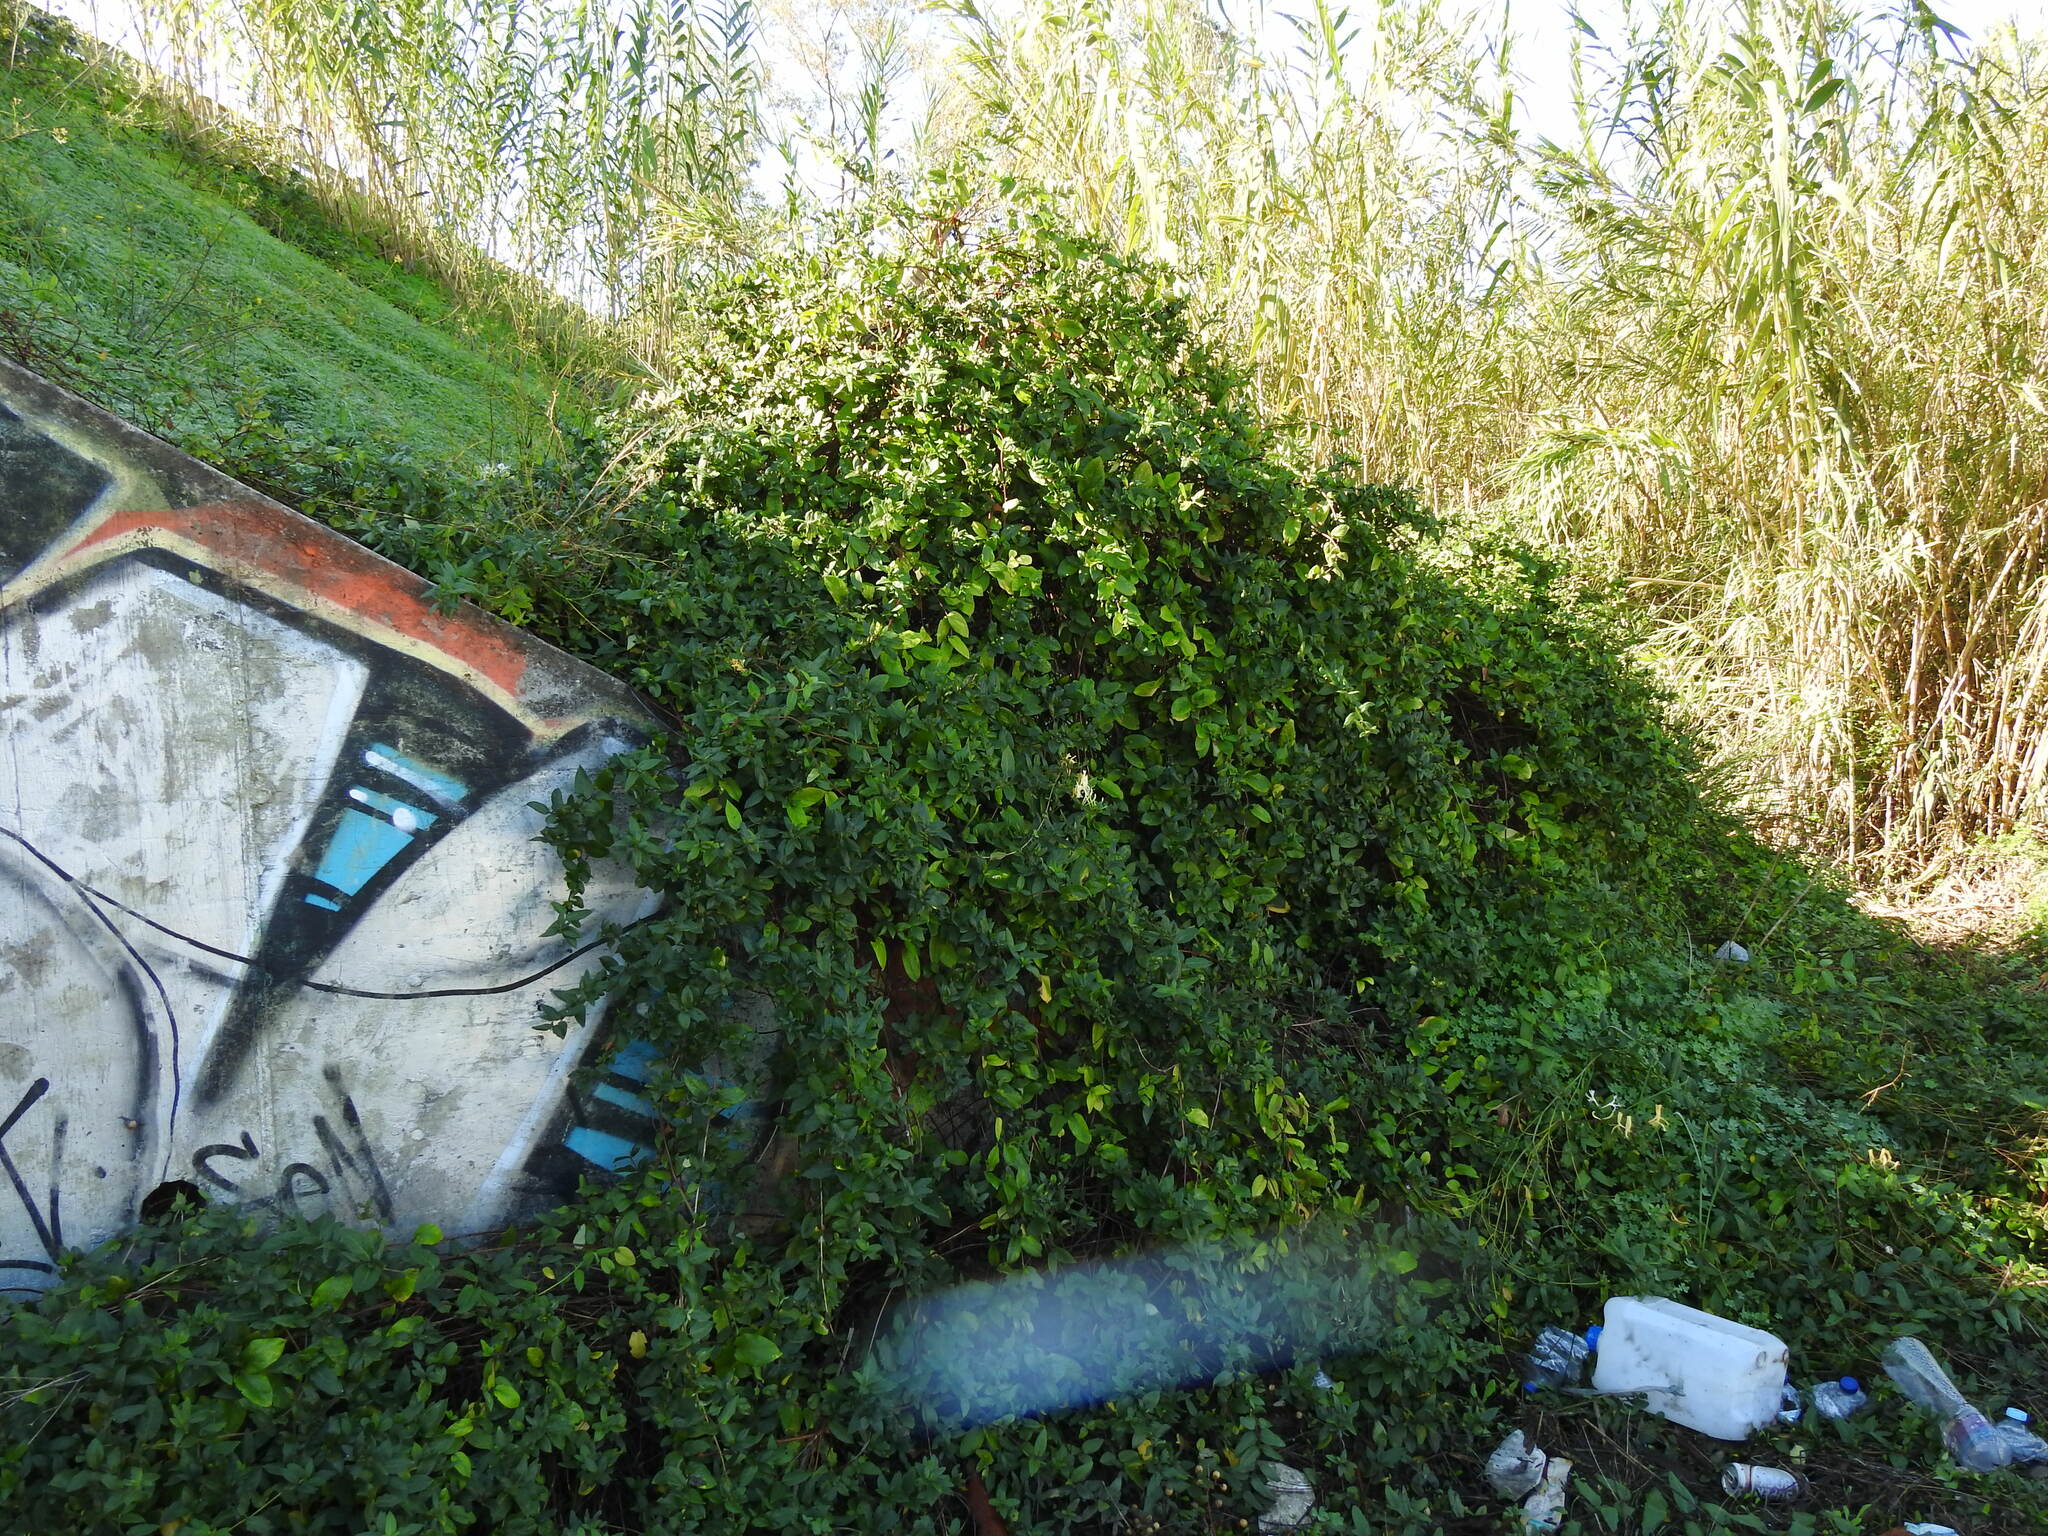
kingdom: Plantae
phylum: Tracheophyta
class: Magnoliopsida
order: Dipsacales
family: Caprifoliaceae
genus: Lonicera
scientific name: Lonicera japonica
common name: Japanese honeysuckle
